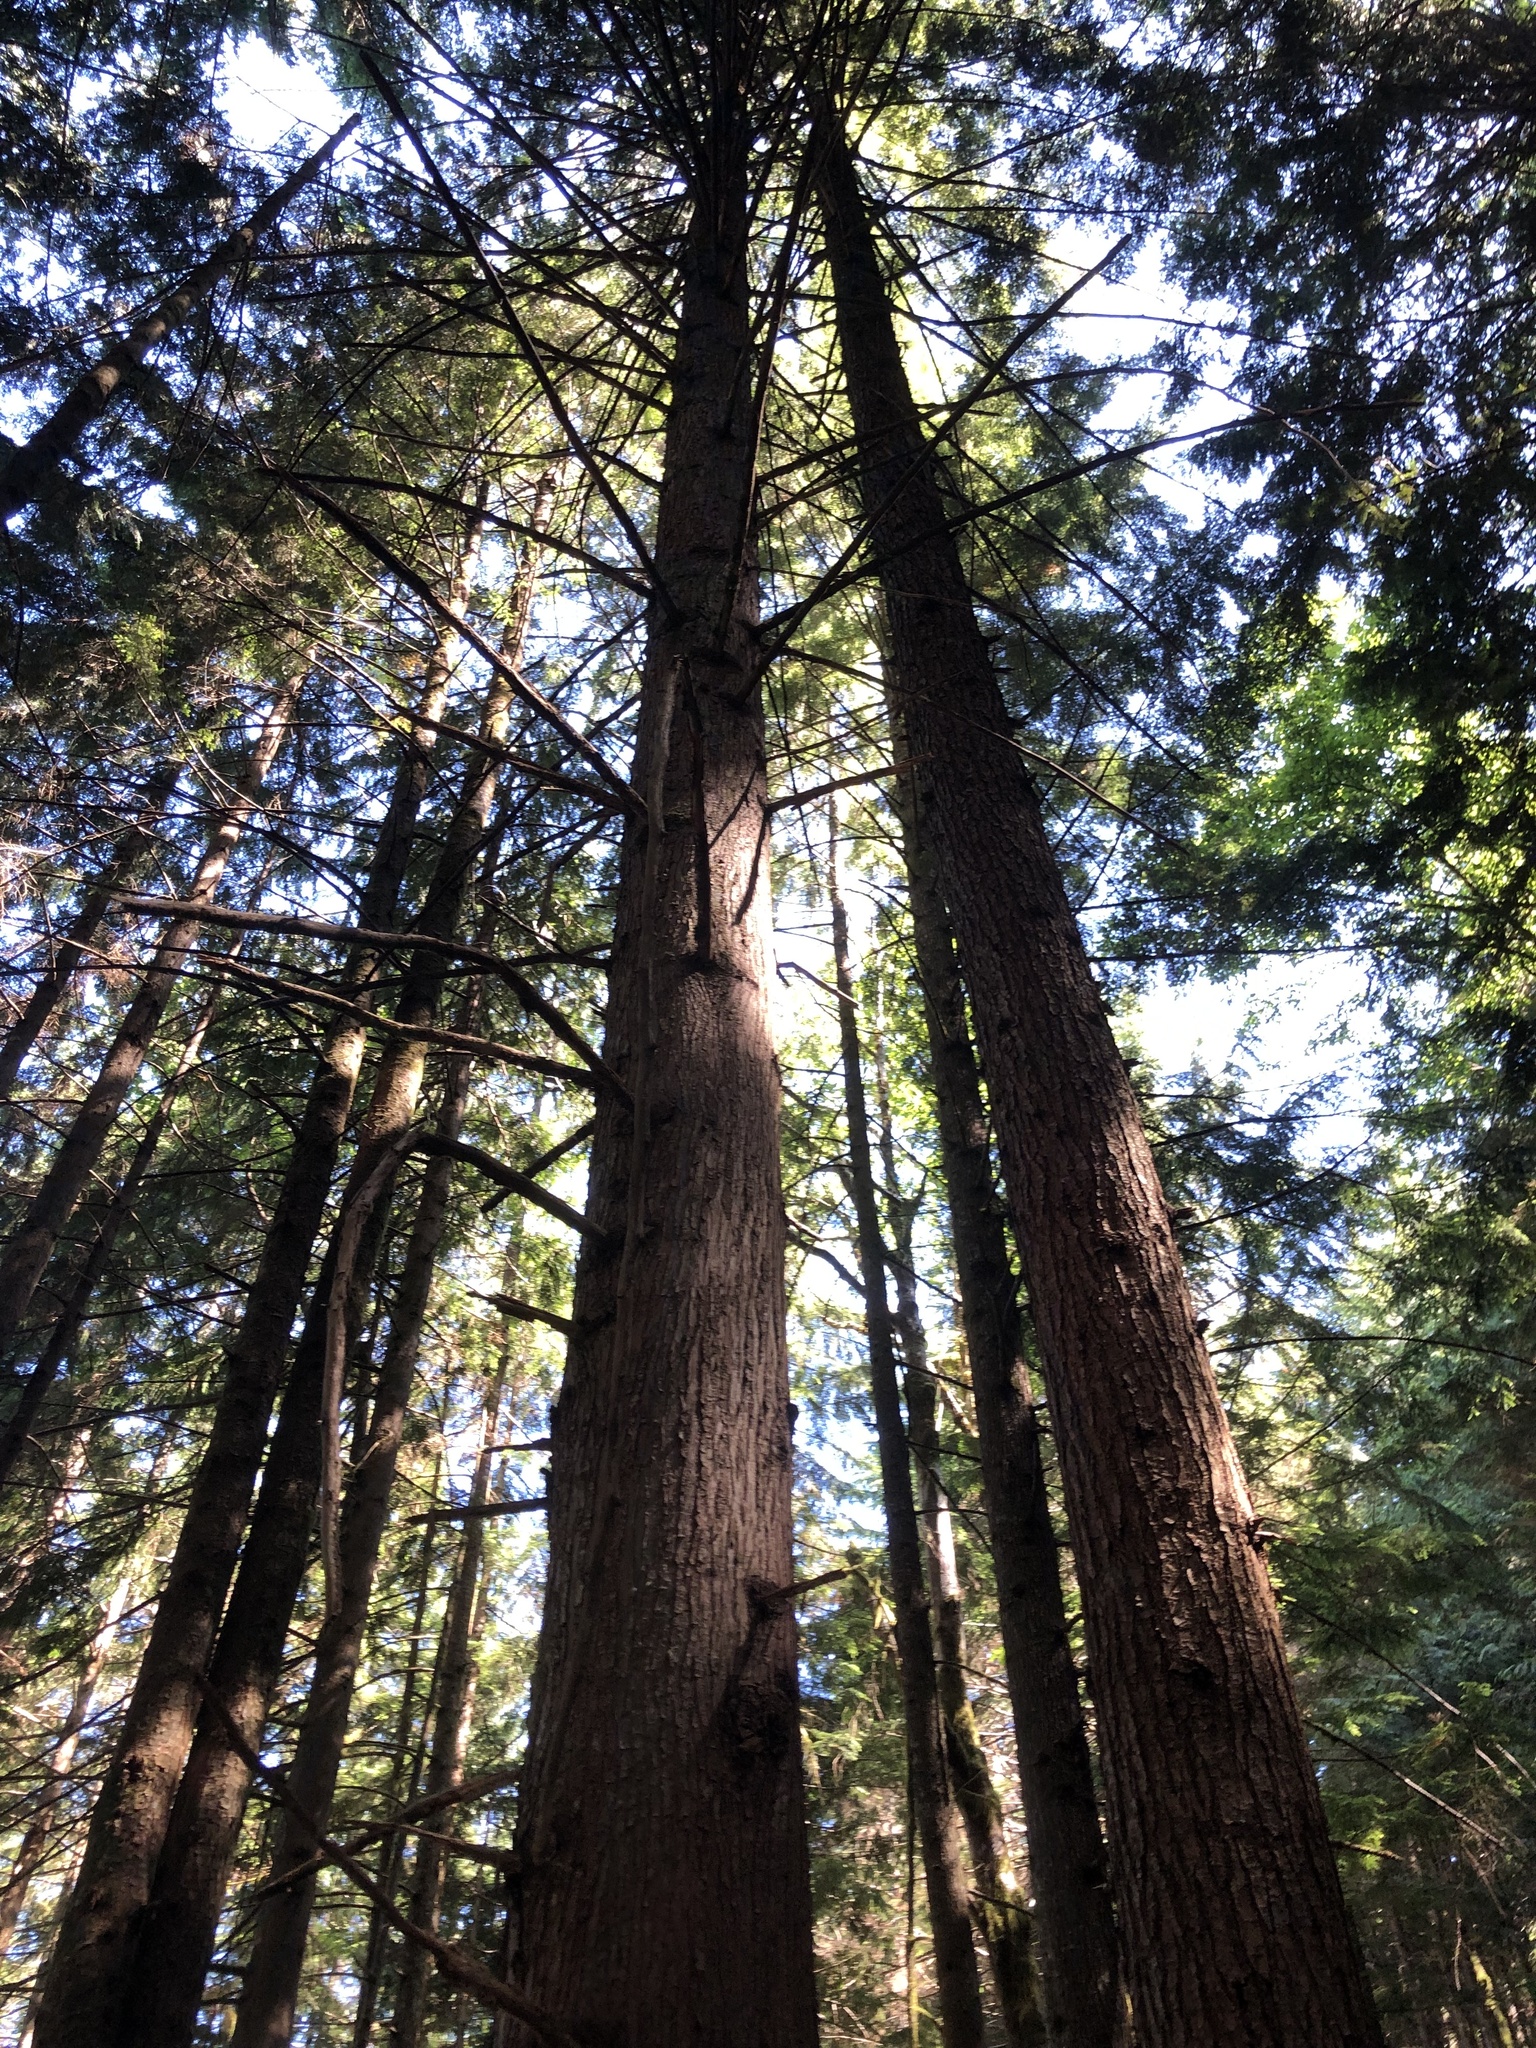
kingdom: Plantae
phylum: Tracheophyta
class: Pinopsida
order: Pinales
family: Cupressaceae
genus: Thuja
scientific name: Thuja plicata
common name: Western red-cedar
